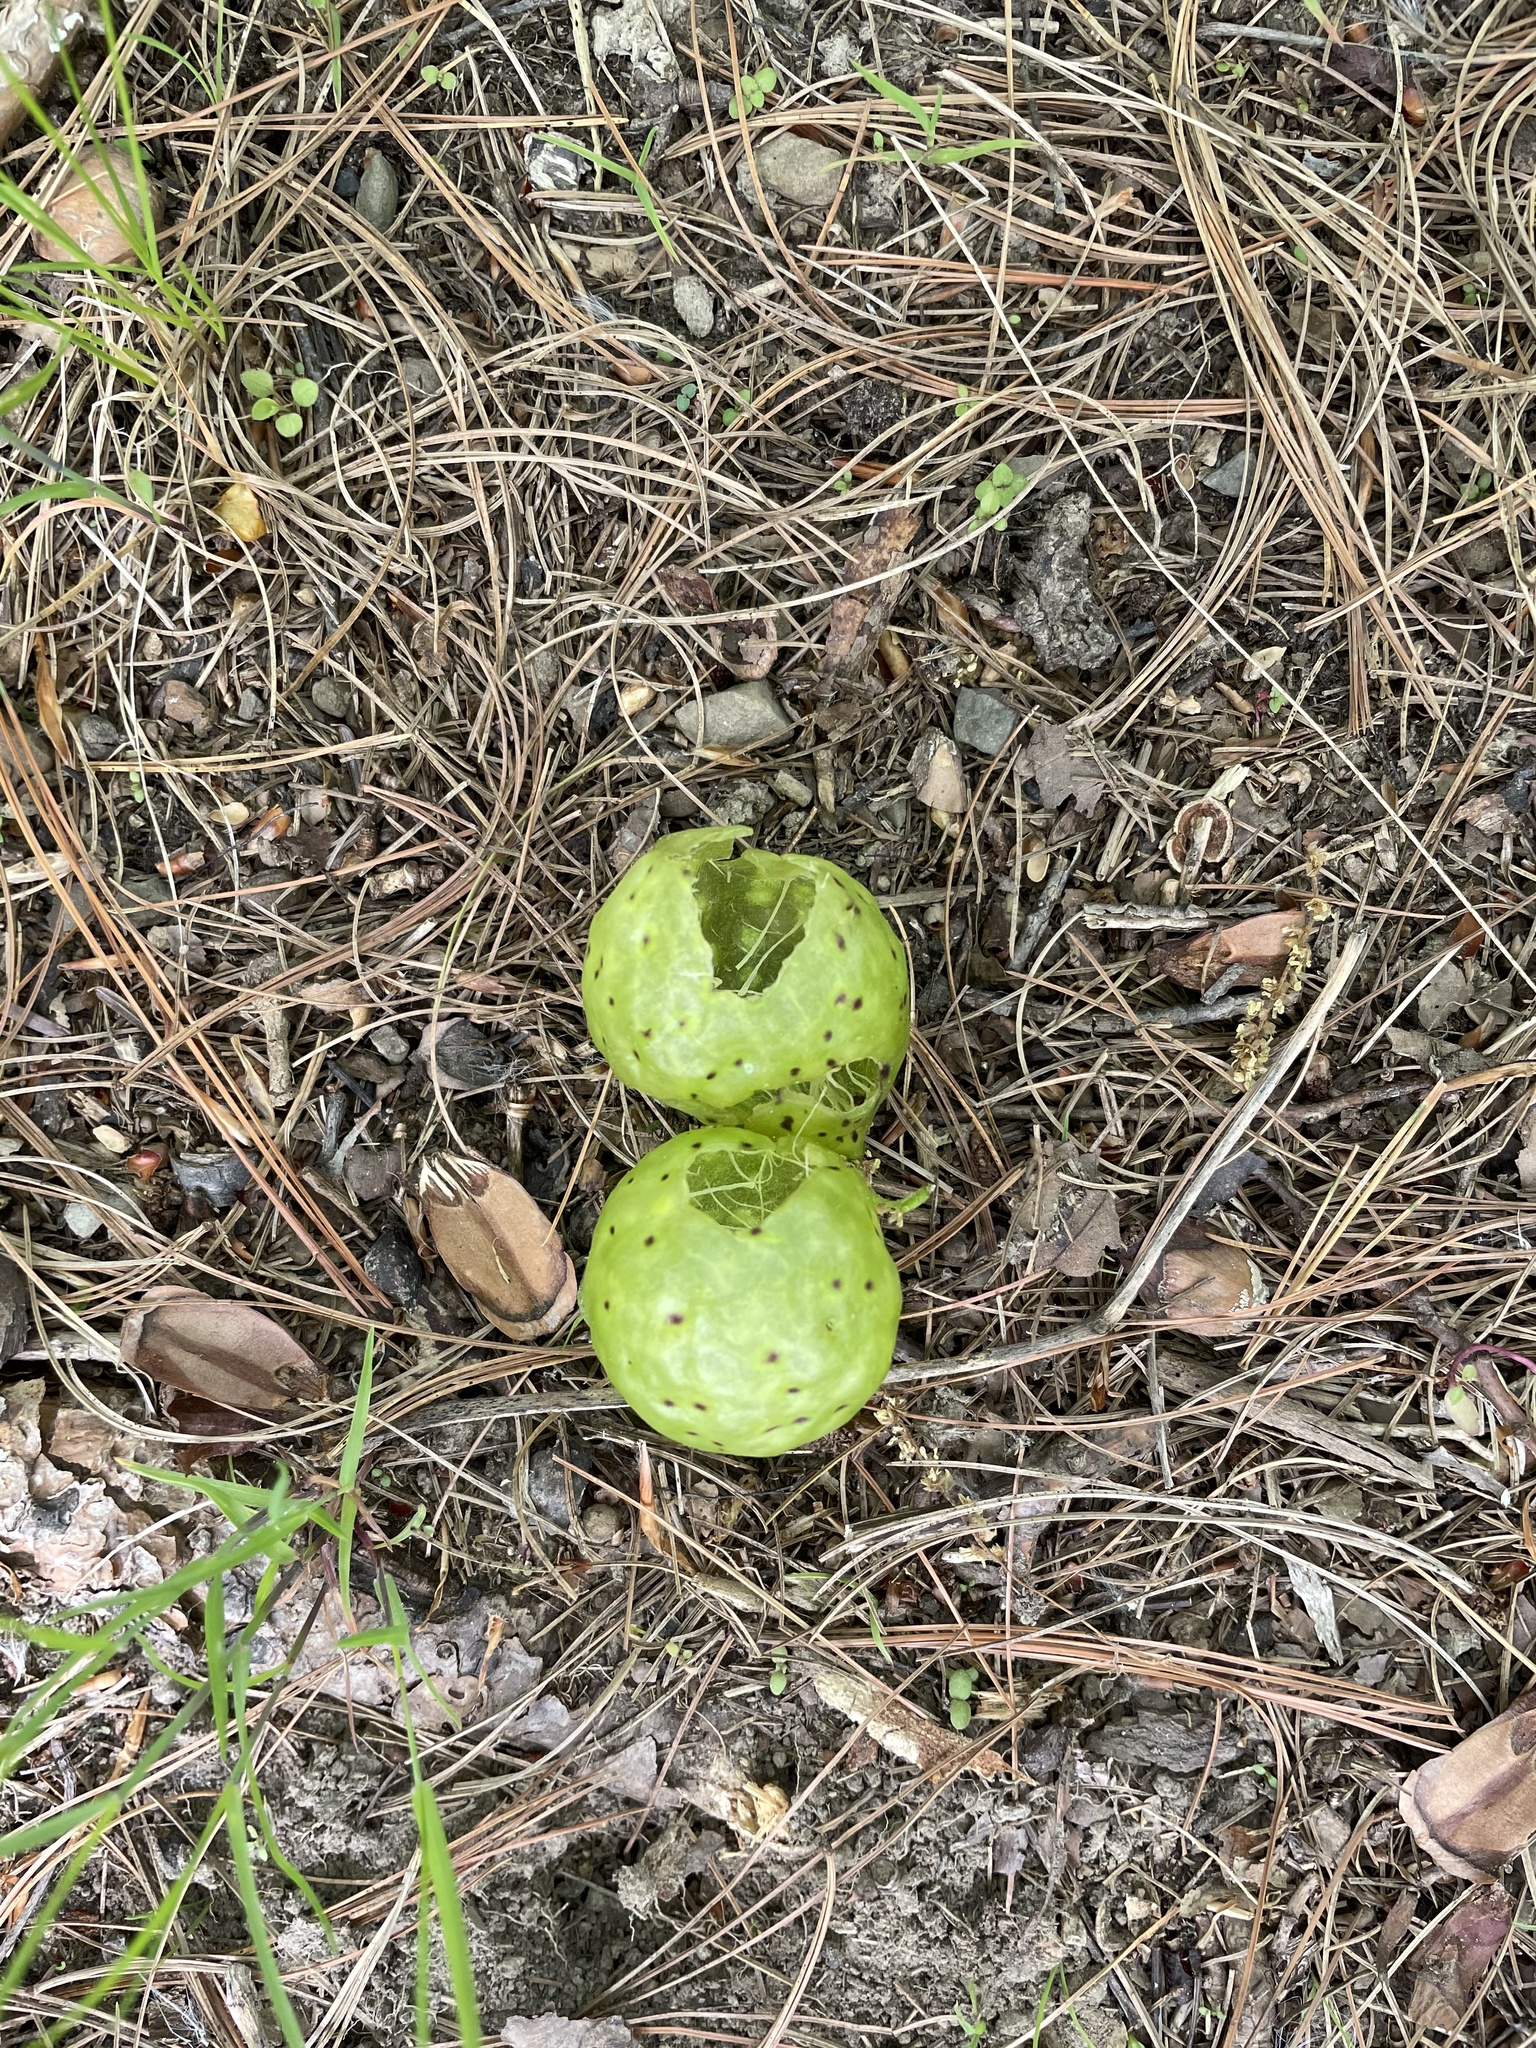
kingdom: Animalia
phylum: Arthropoda
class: Insecta
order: Hymenoptera
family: Cynipidae
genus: Amphibolips
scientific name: Amphibolips
